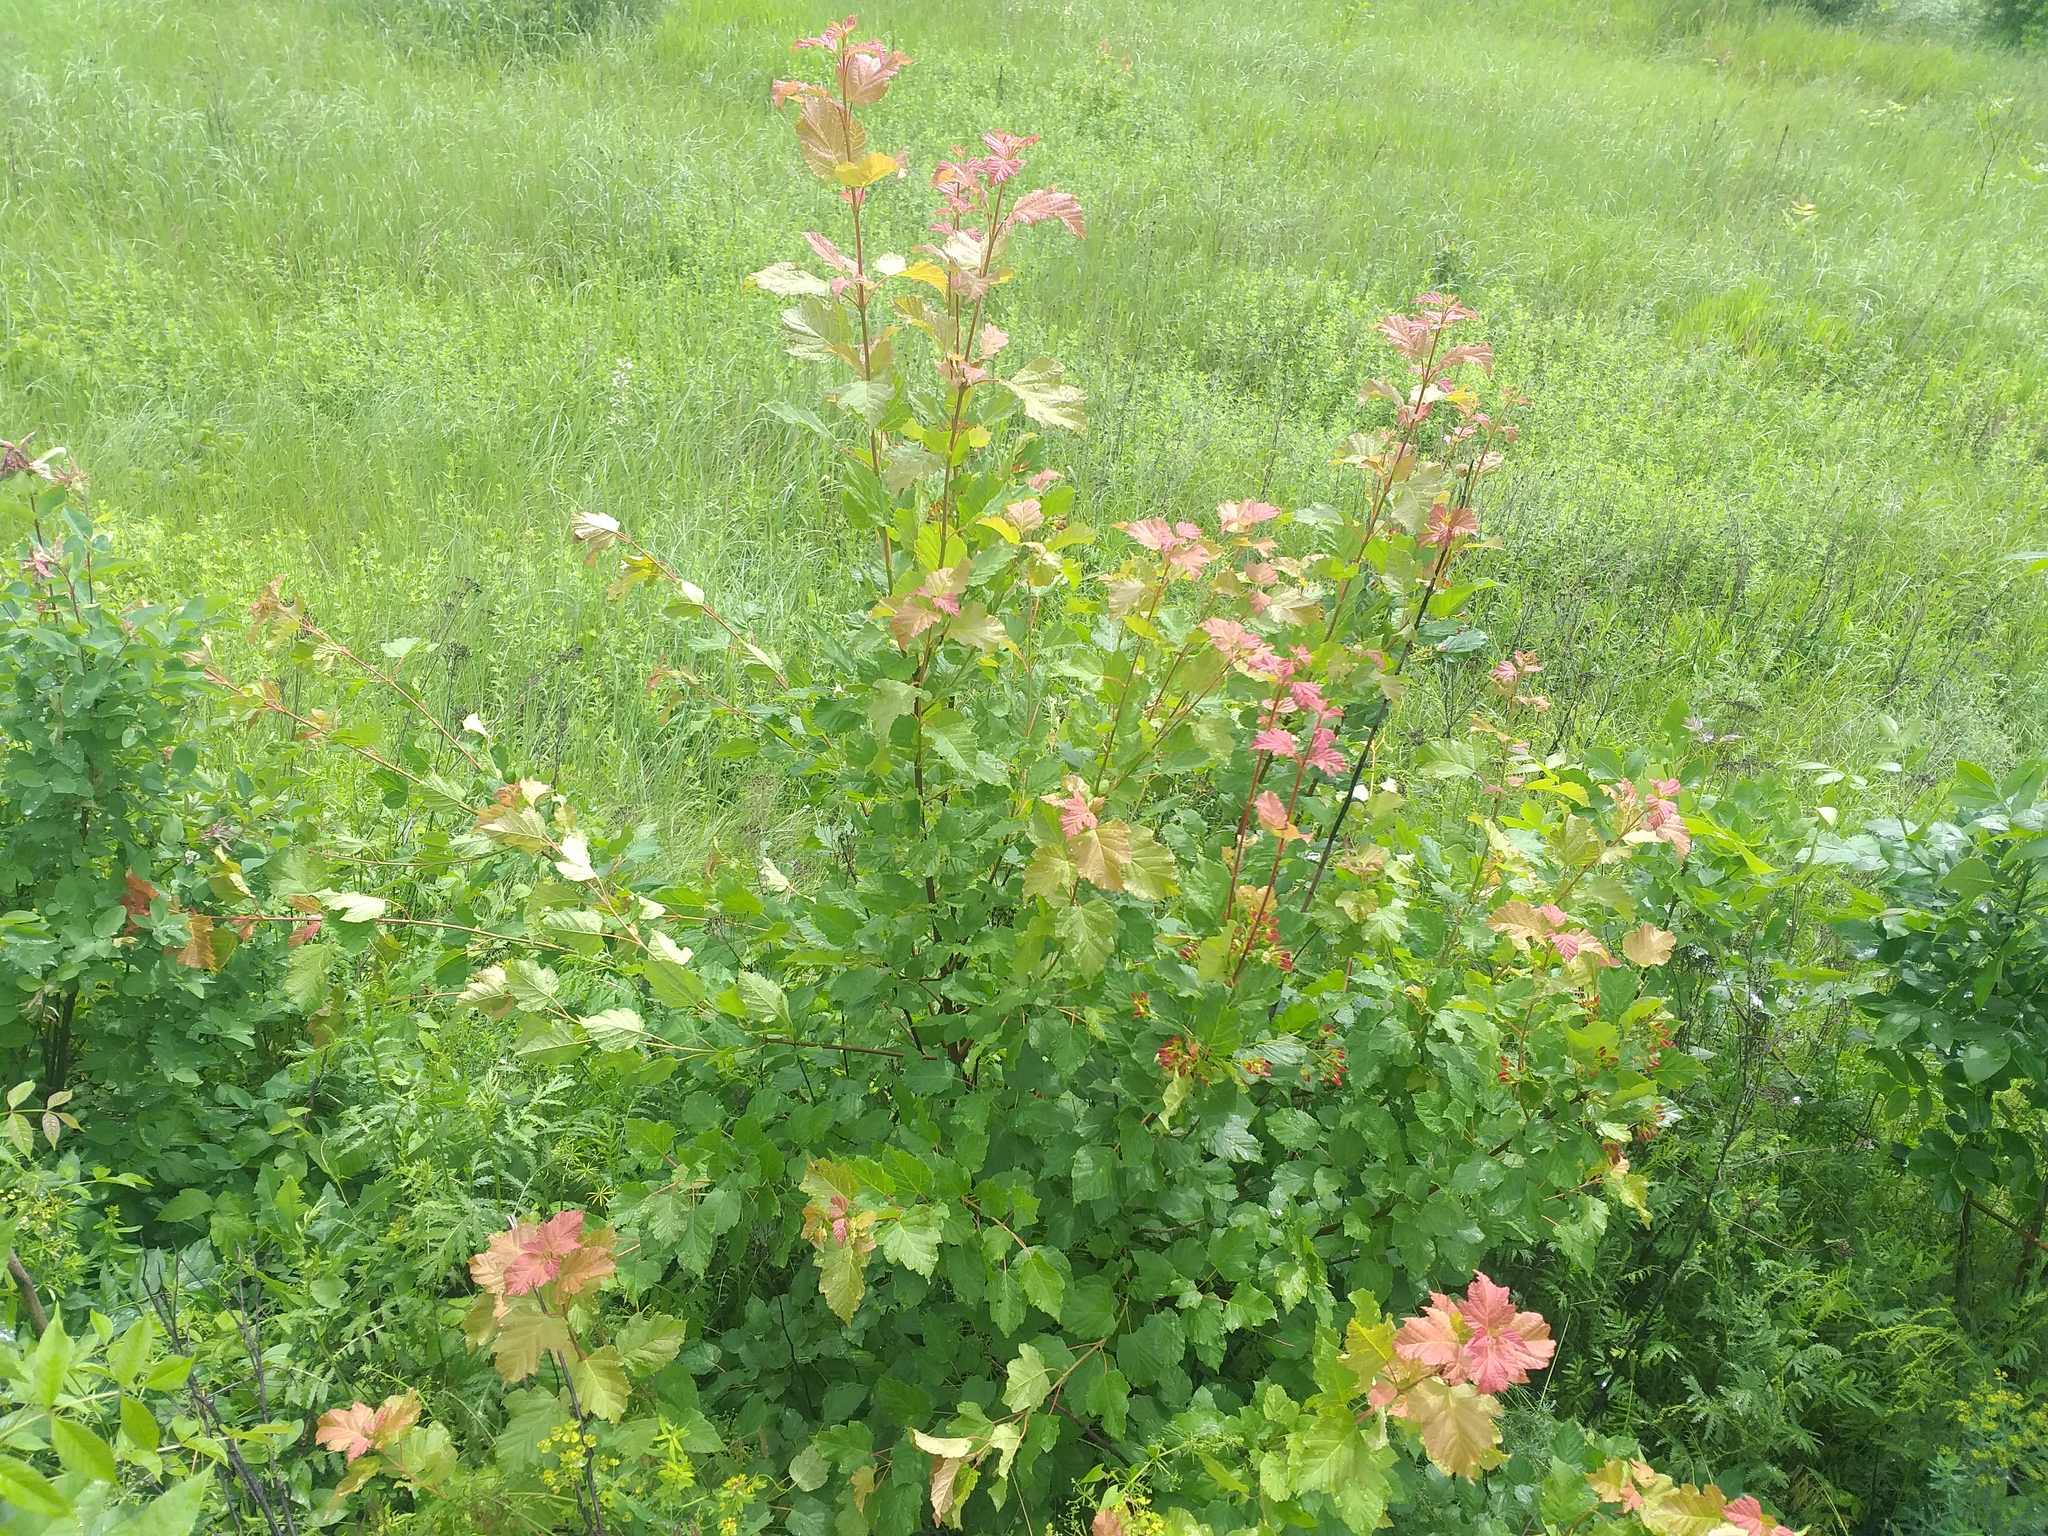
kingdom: Plantae
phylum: Tracheophyta
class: Magnoliopsida
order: Sapindales
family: Sapindaceae
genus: Acer
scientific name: Acer tataricum
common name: Tartar maple
